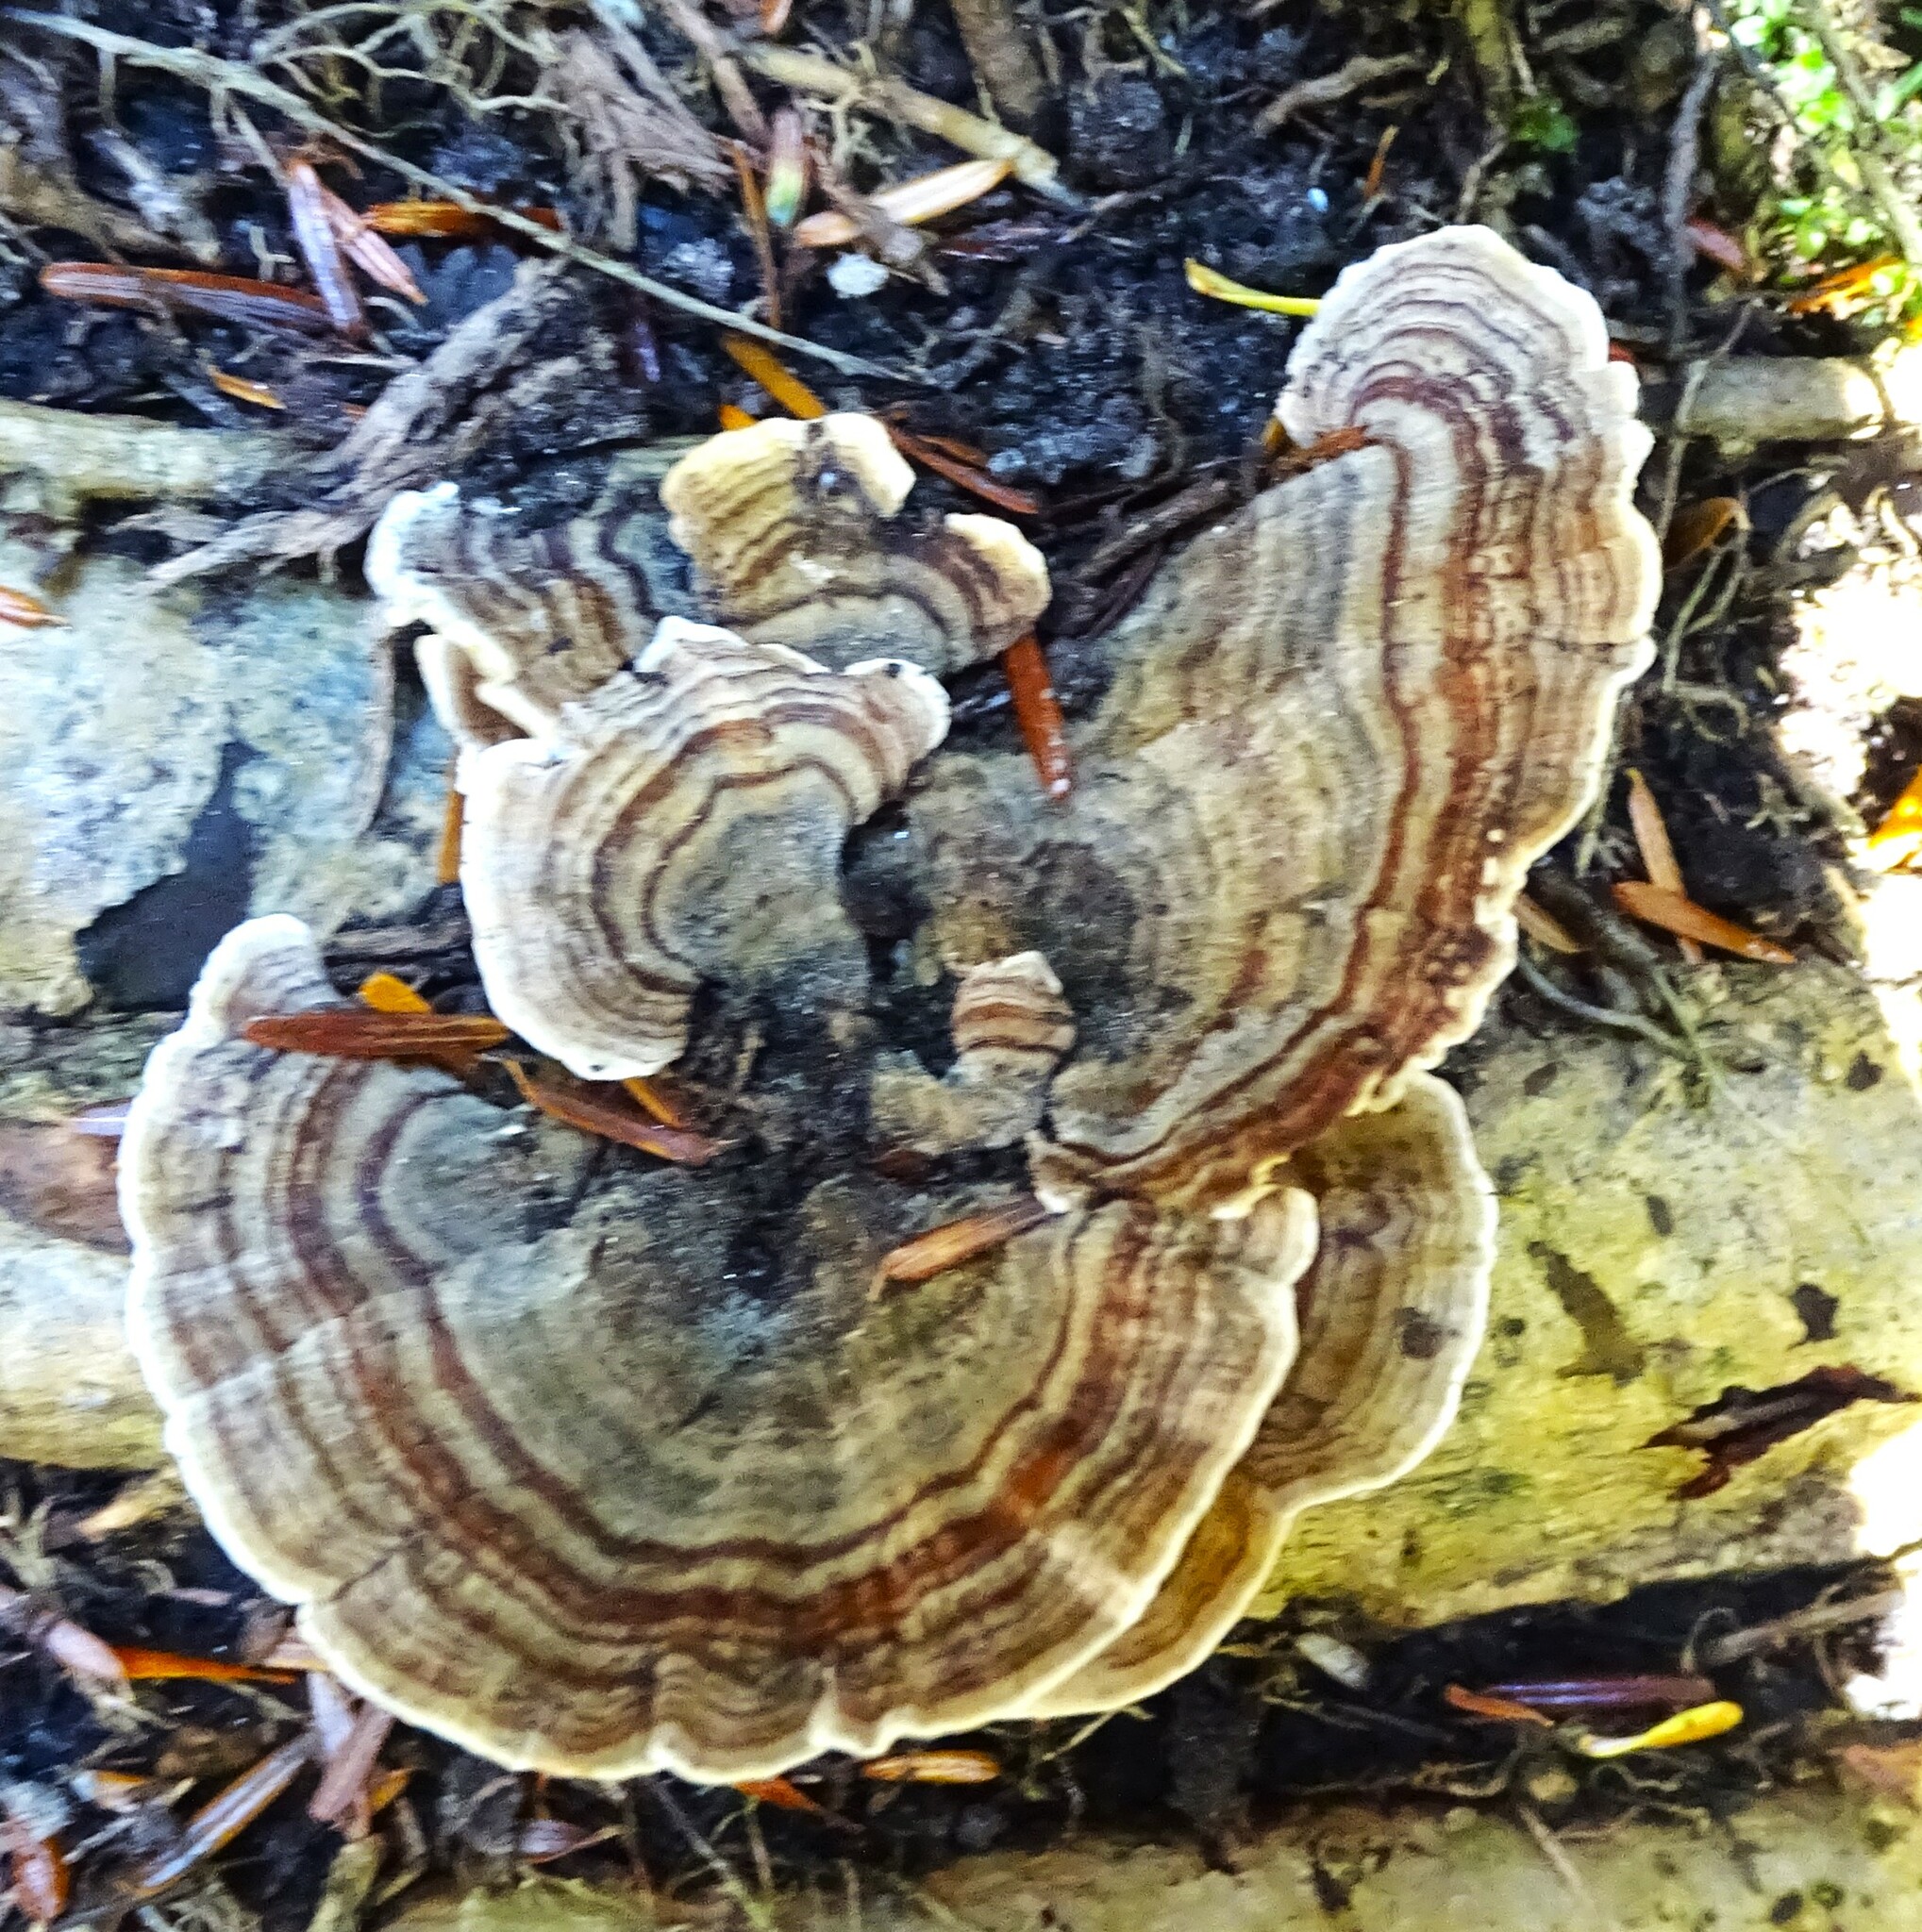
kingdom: Fungi
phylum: Basidiomycota
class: Agaricomycetes
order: Polyporales
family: Polyporaceae
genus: Trametes
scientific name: Trametes versicolor
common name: Turkeytail
